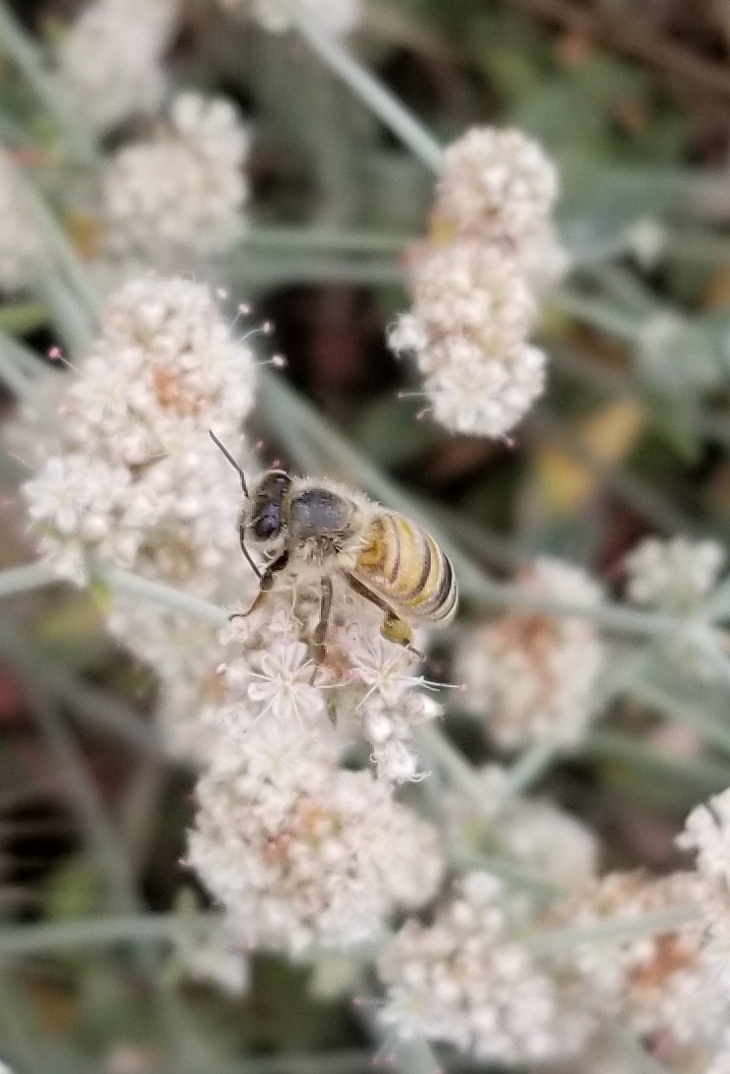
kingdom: Animalia
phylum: Arthropoda
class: Insecta
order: Hymenoptera
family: Apidae
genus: Apis
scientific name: Apis mellifera
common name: Honey bee
